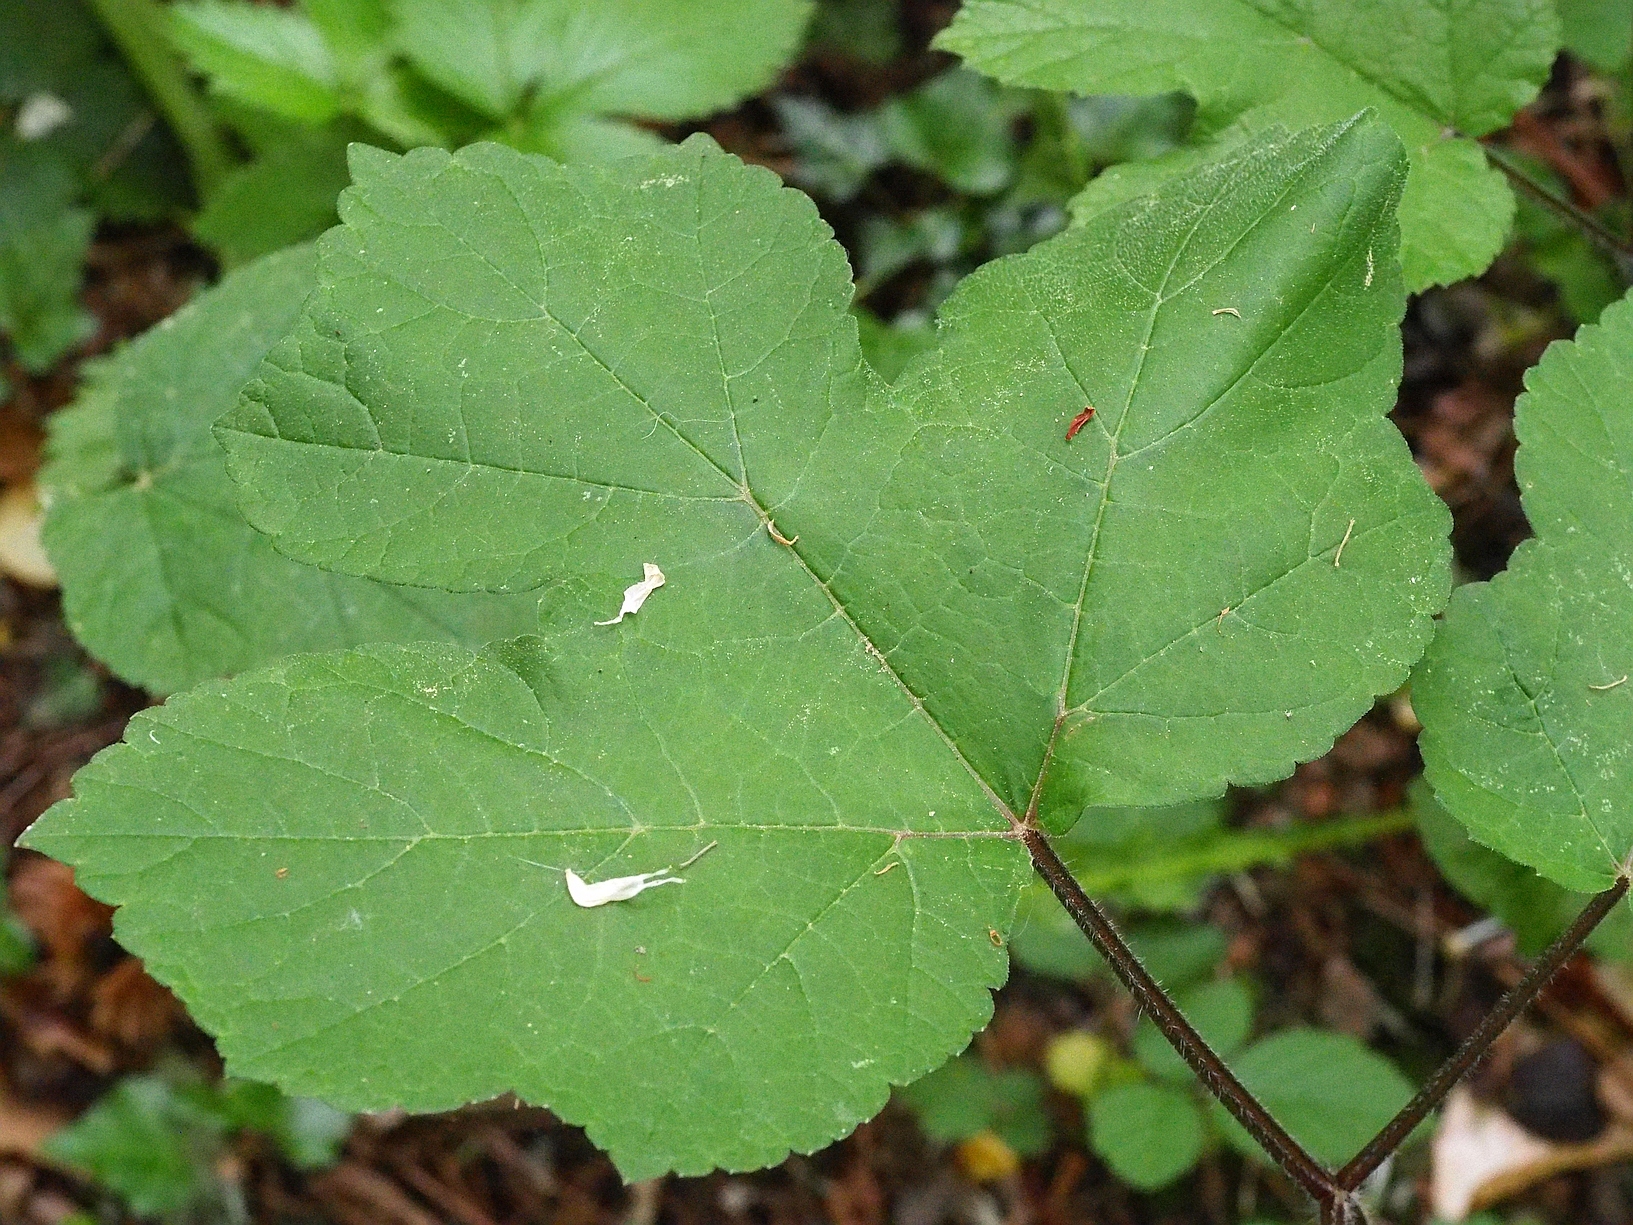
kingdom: Plantae
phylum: Tracheophyta
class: Magnoliopsida
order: Apiales
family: Apiaceae
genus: Heracleum
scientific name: Heracleum sphondylium
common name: Hogweed
